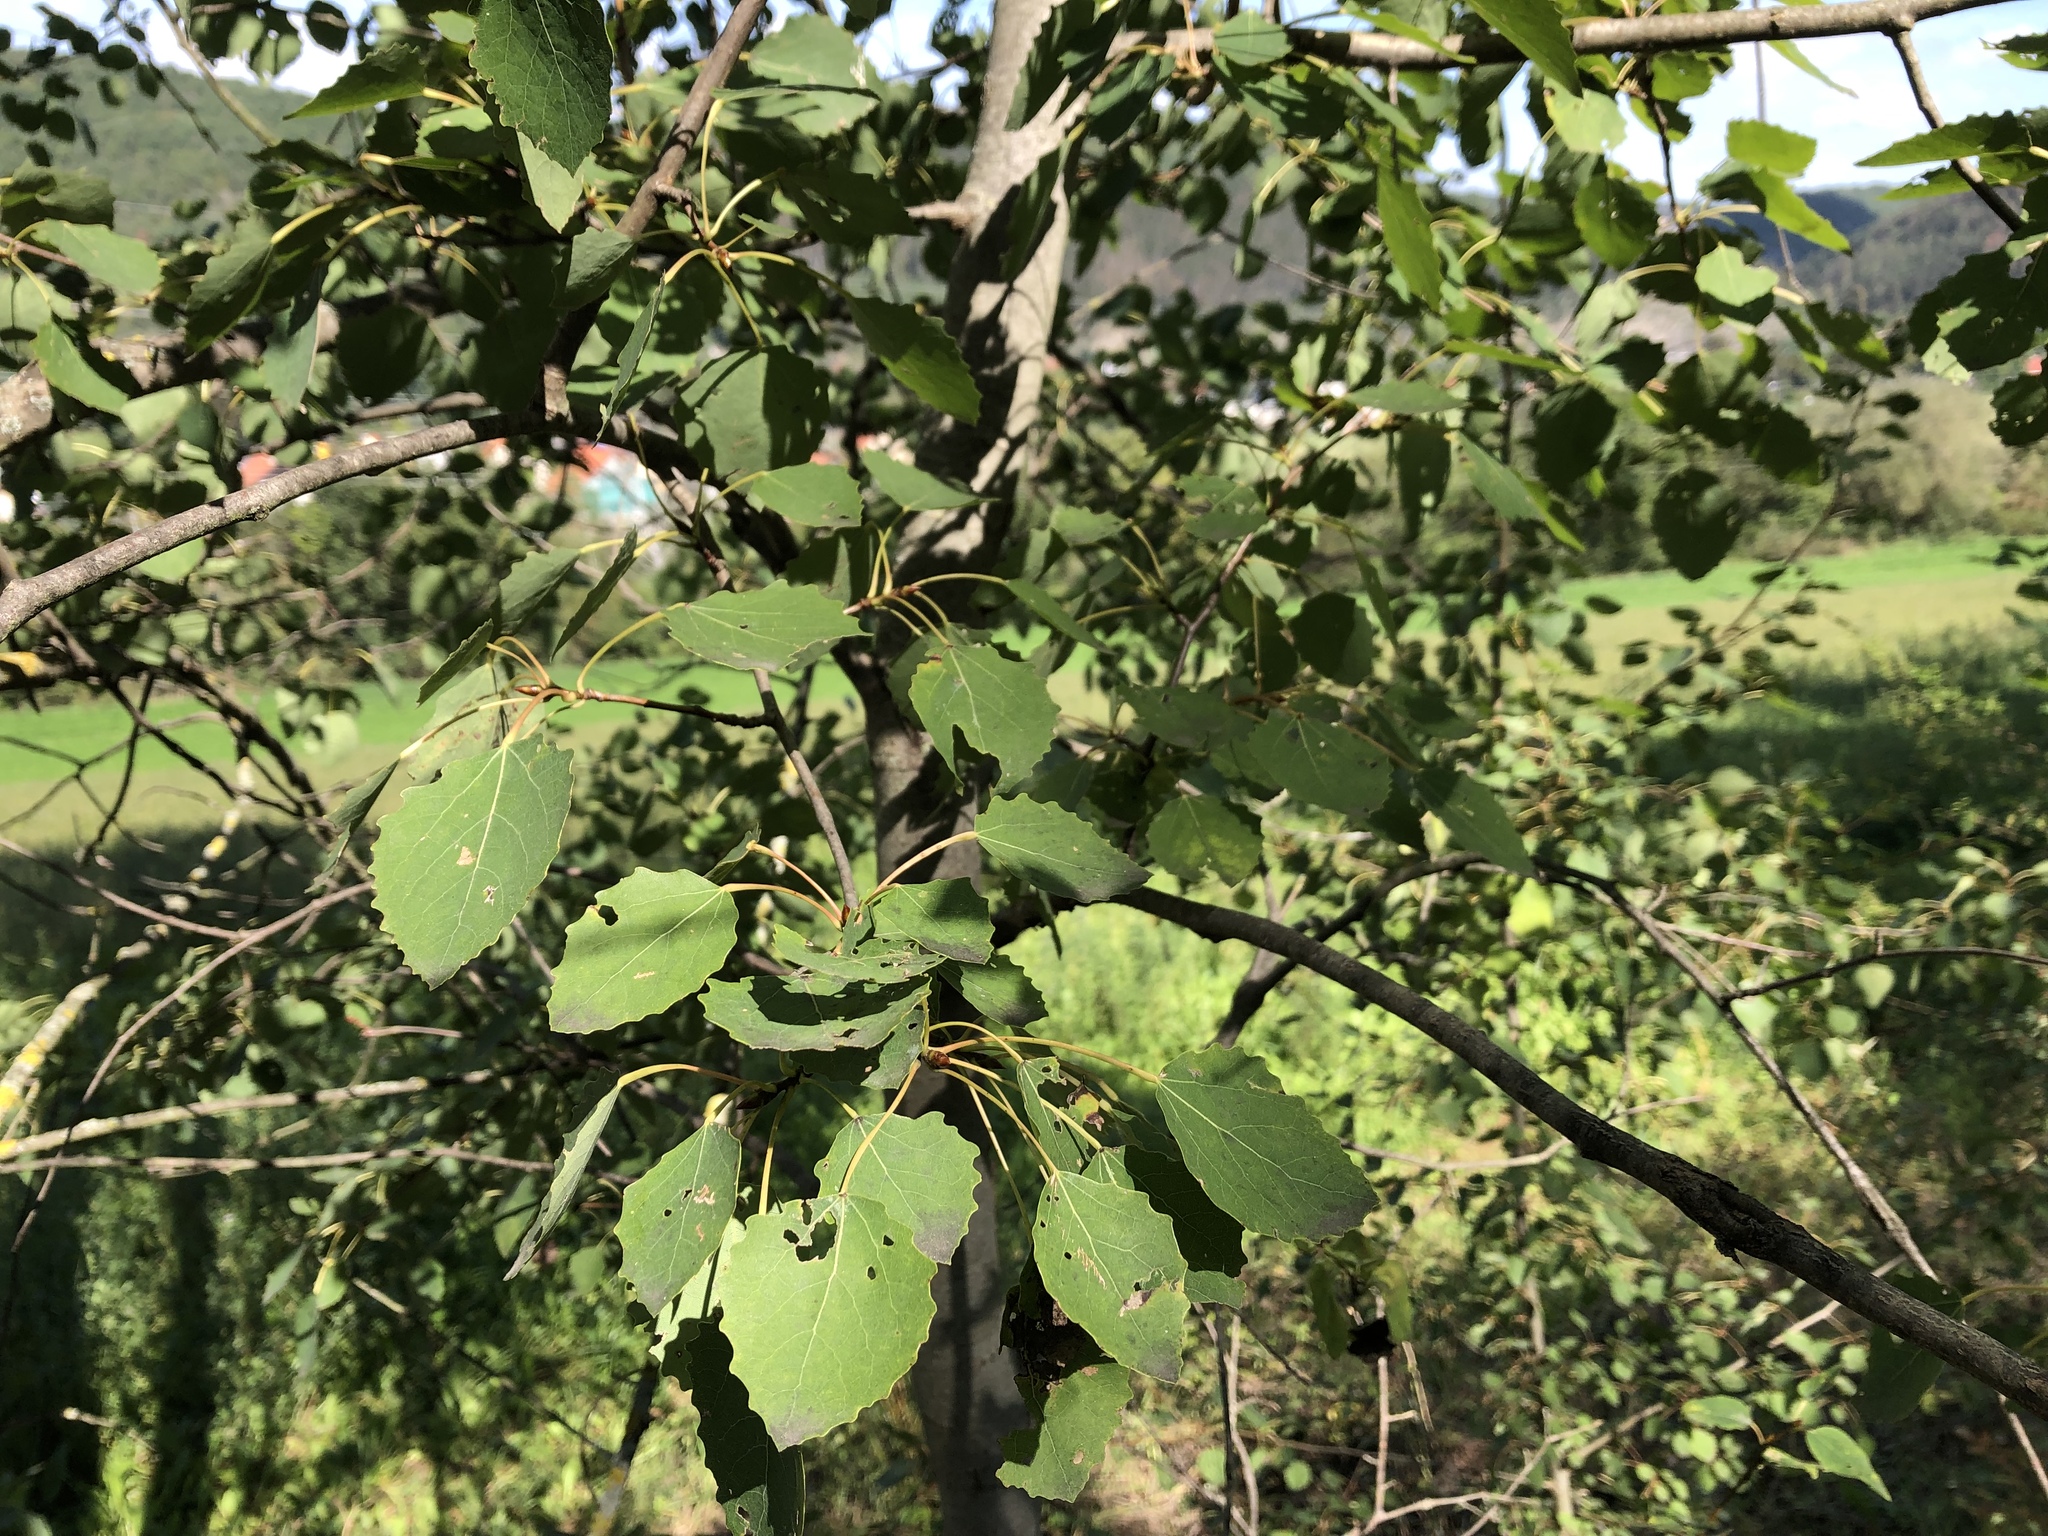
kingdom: Plantae
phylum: Tracheophyta
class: Magnoliopsida
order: Malpighiales
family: Salicaceae
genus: Populus
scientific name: Populus tremula
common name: European aspen
